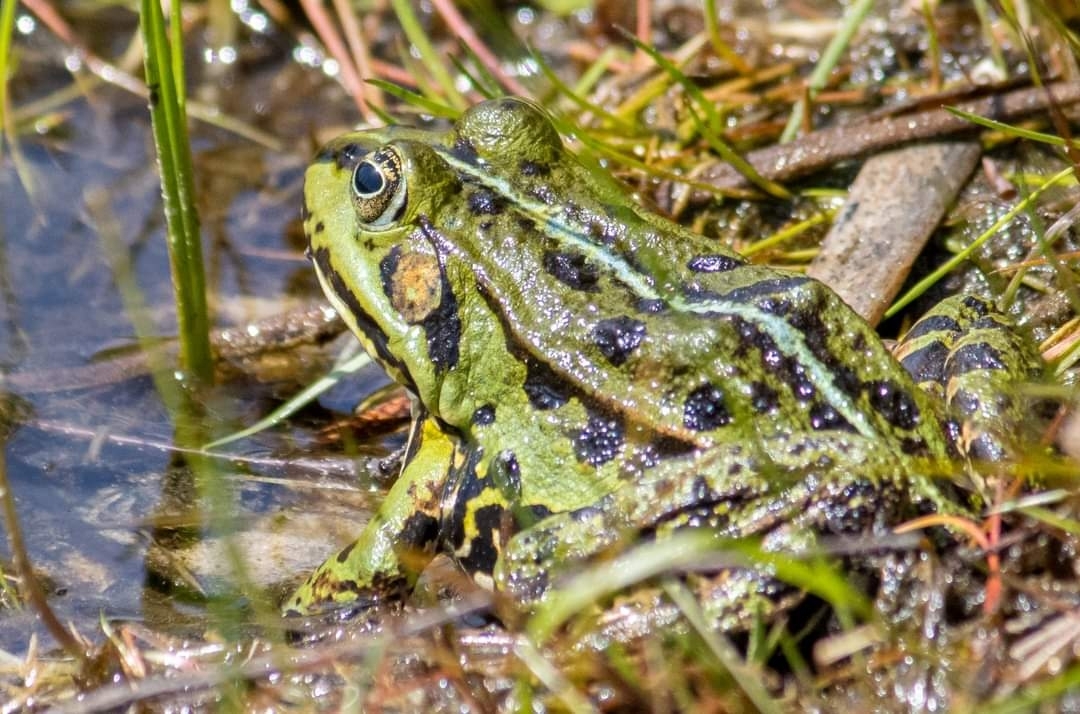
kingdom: Animalia
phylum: Chordata
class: Amphibia
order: Anura
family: Ranidae
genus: Pelophylax
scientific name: Pelophylax lessonae
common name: Pool frog
